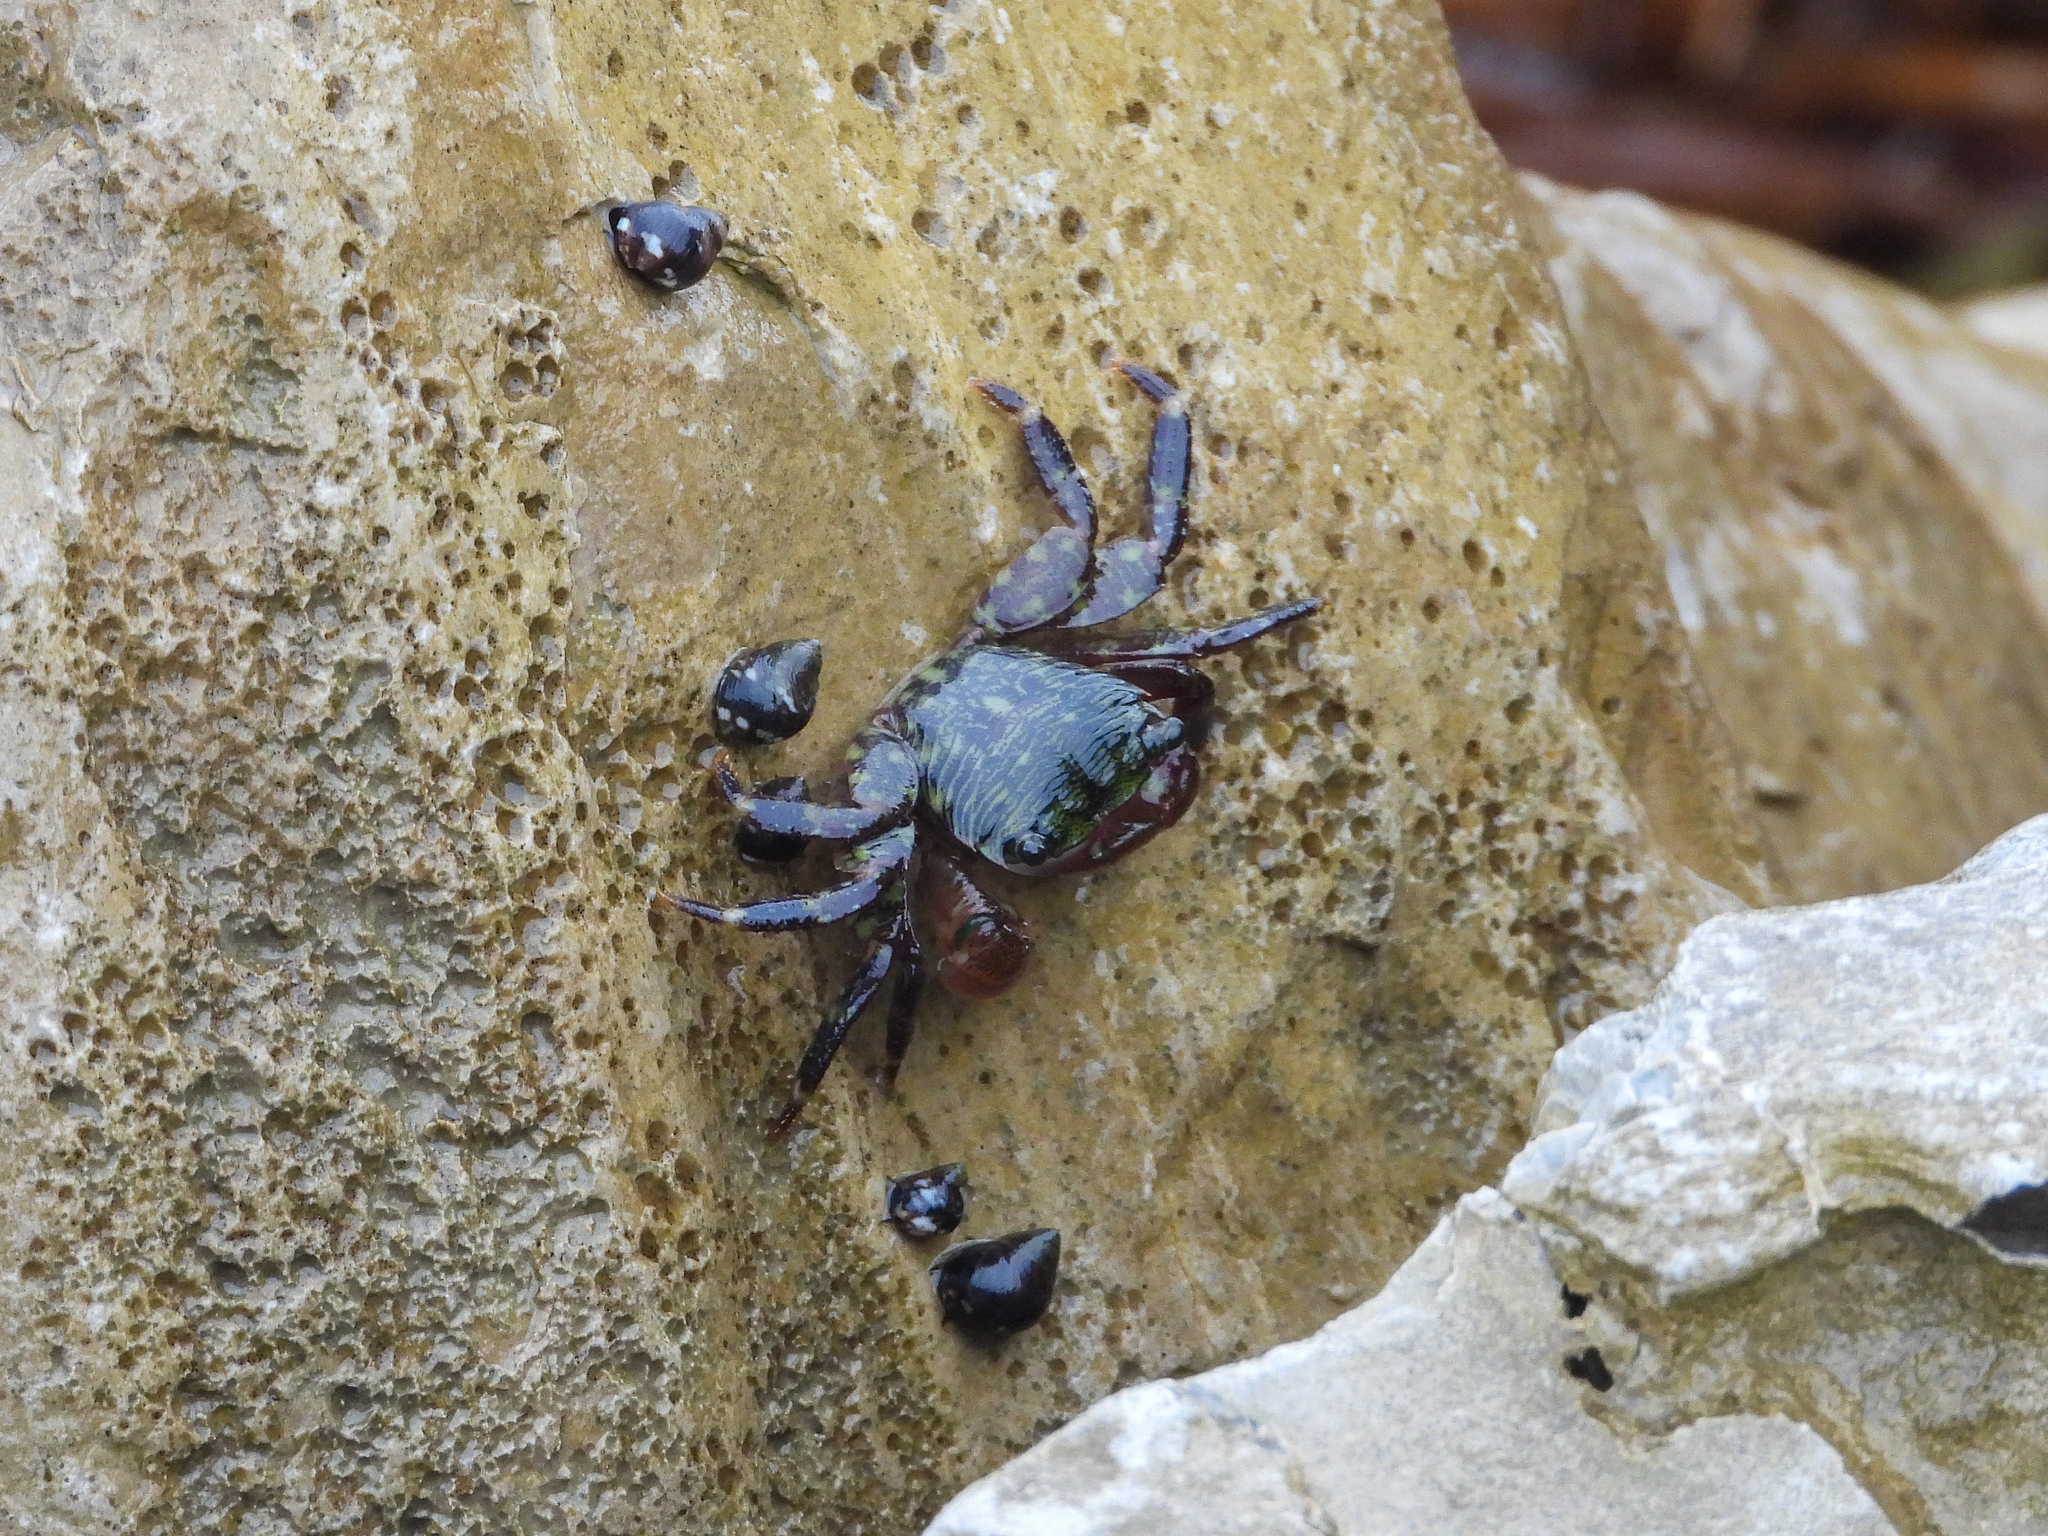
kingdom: Animalia
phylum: Arthropoda
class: Malacostraca
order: Decapoda
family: Grapsidae
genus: Pachygrapsus
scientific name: Pachygrapsus crassipes
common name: Striped shore crab
